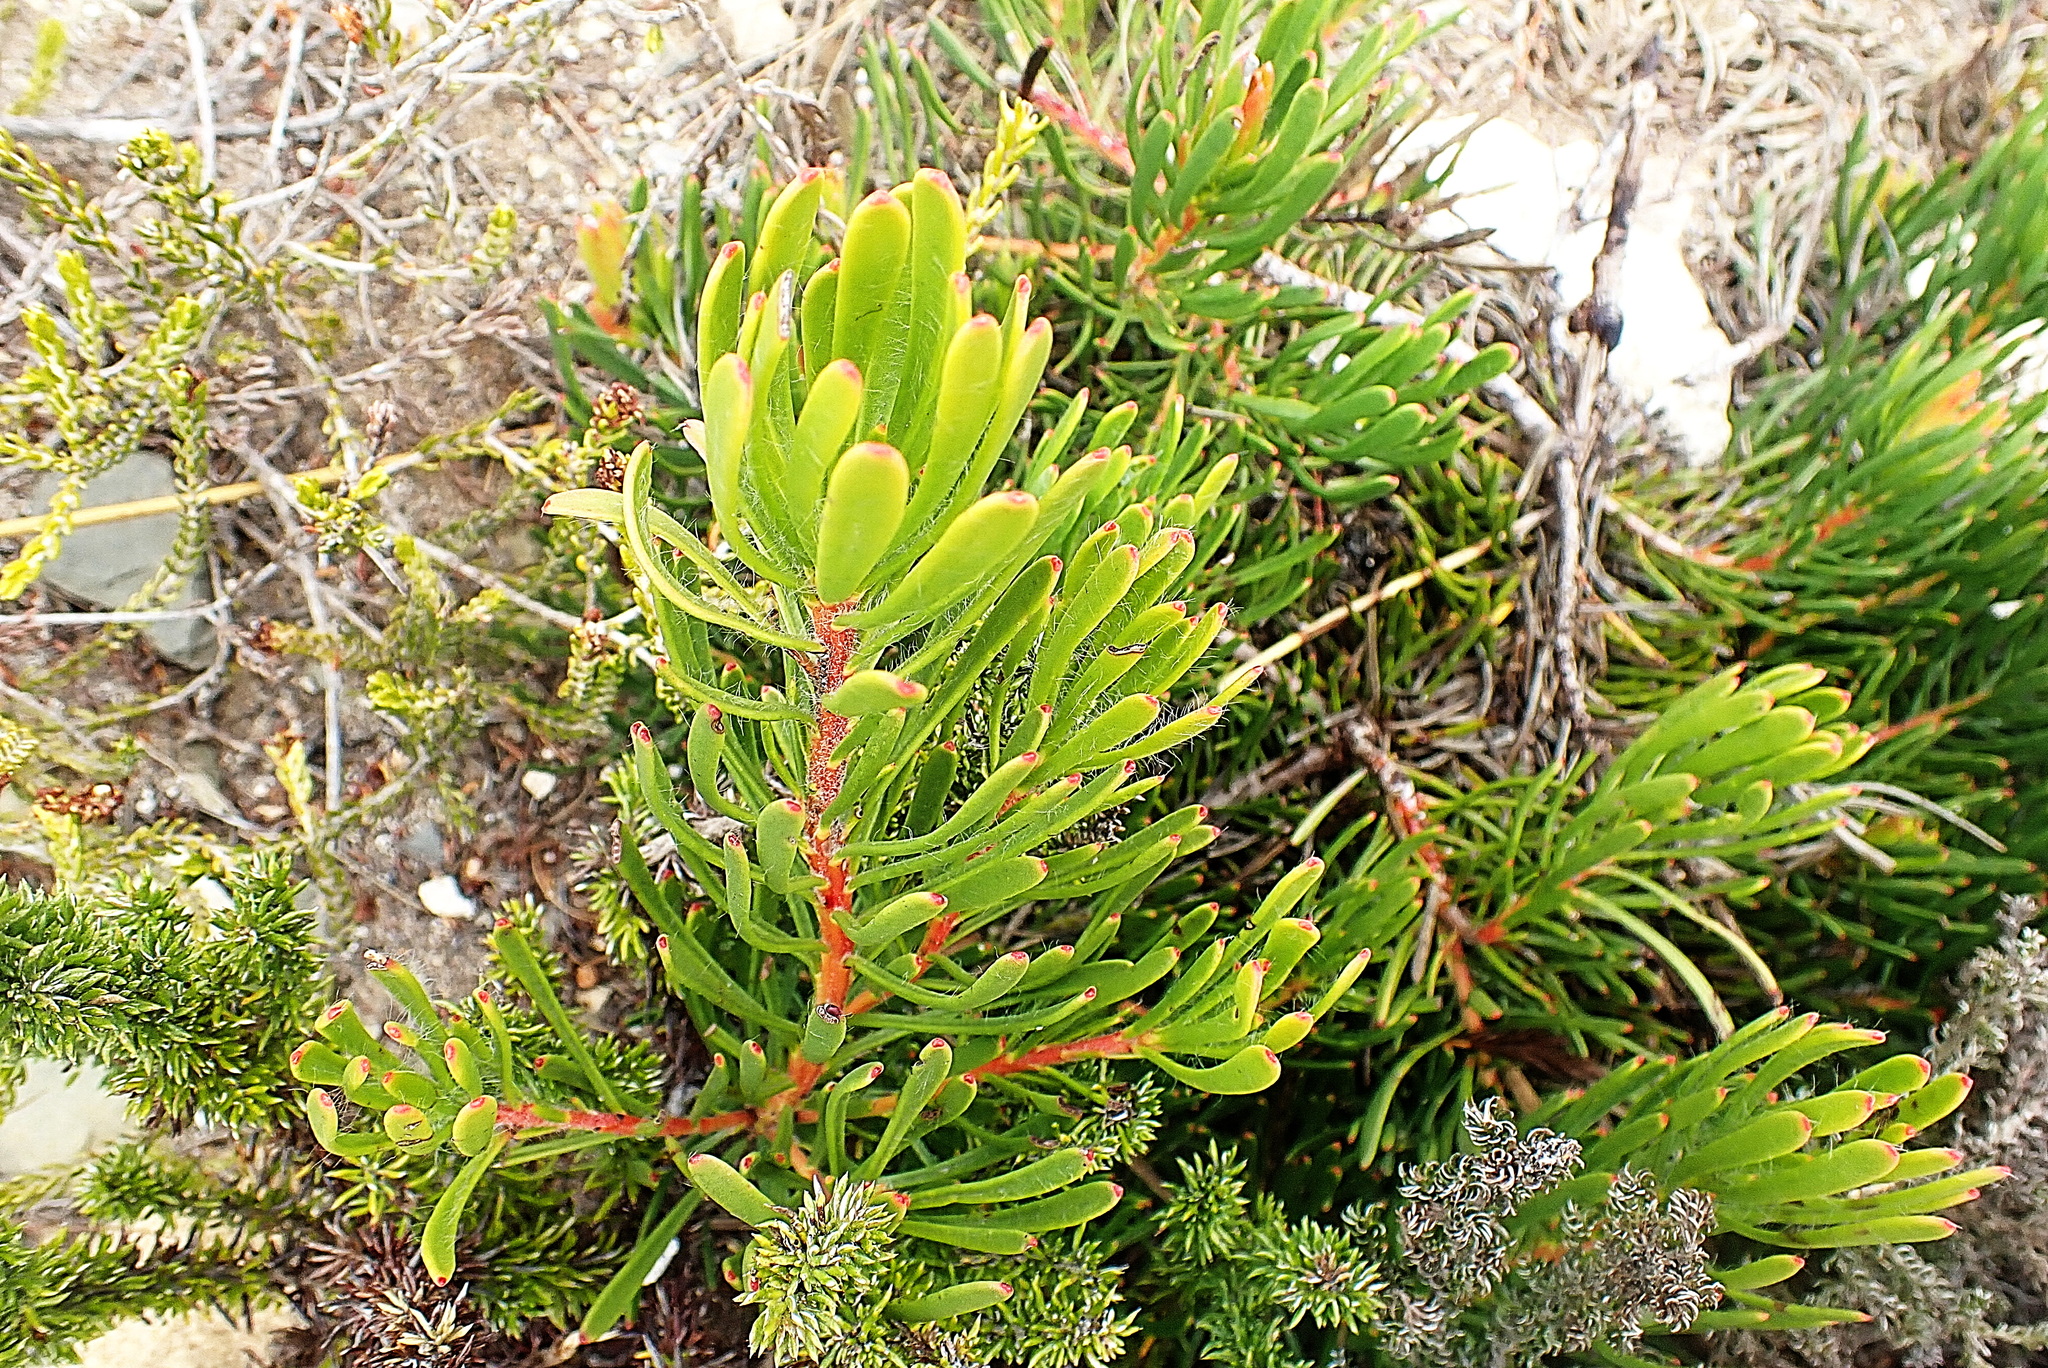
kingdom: Plantae
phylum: Tracheophyta
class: Magnoliopsida
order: Proteales
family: Proteaceae
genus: Leucadendron
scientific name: Leucadendron muirii
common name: Silver-ball conebush
